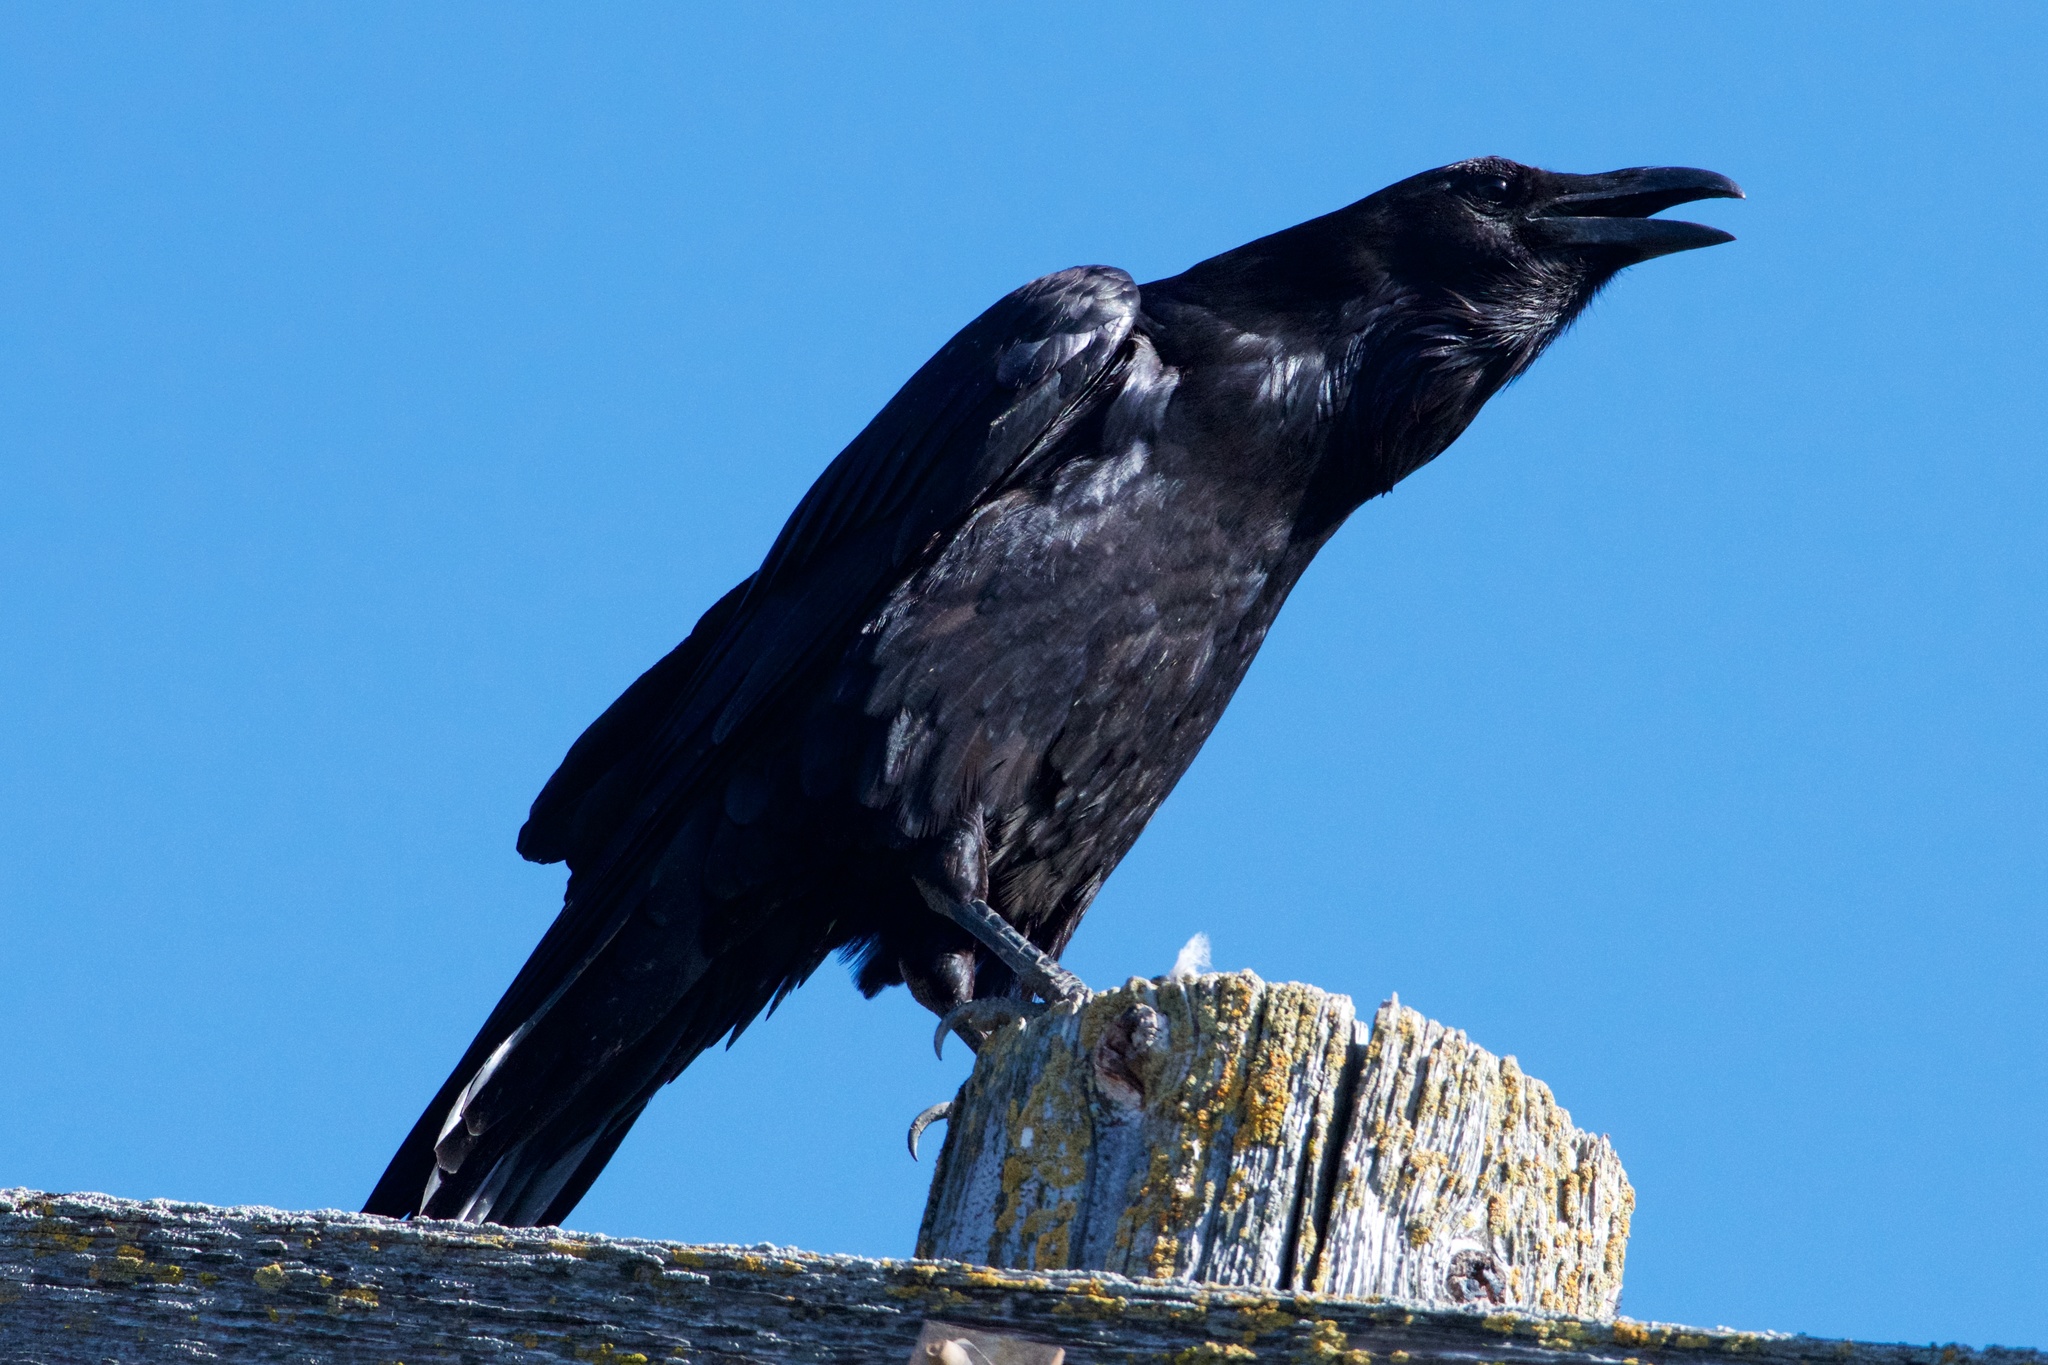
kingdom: Animalia
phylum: Chordata
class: Aves
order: Passeriformes
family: Corvidae
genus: Corvus
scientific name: Corvus corax
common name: Common raven
